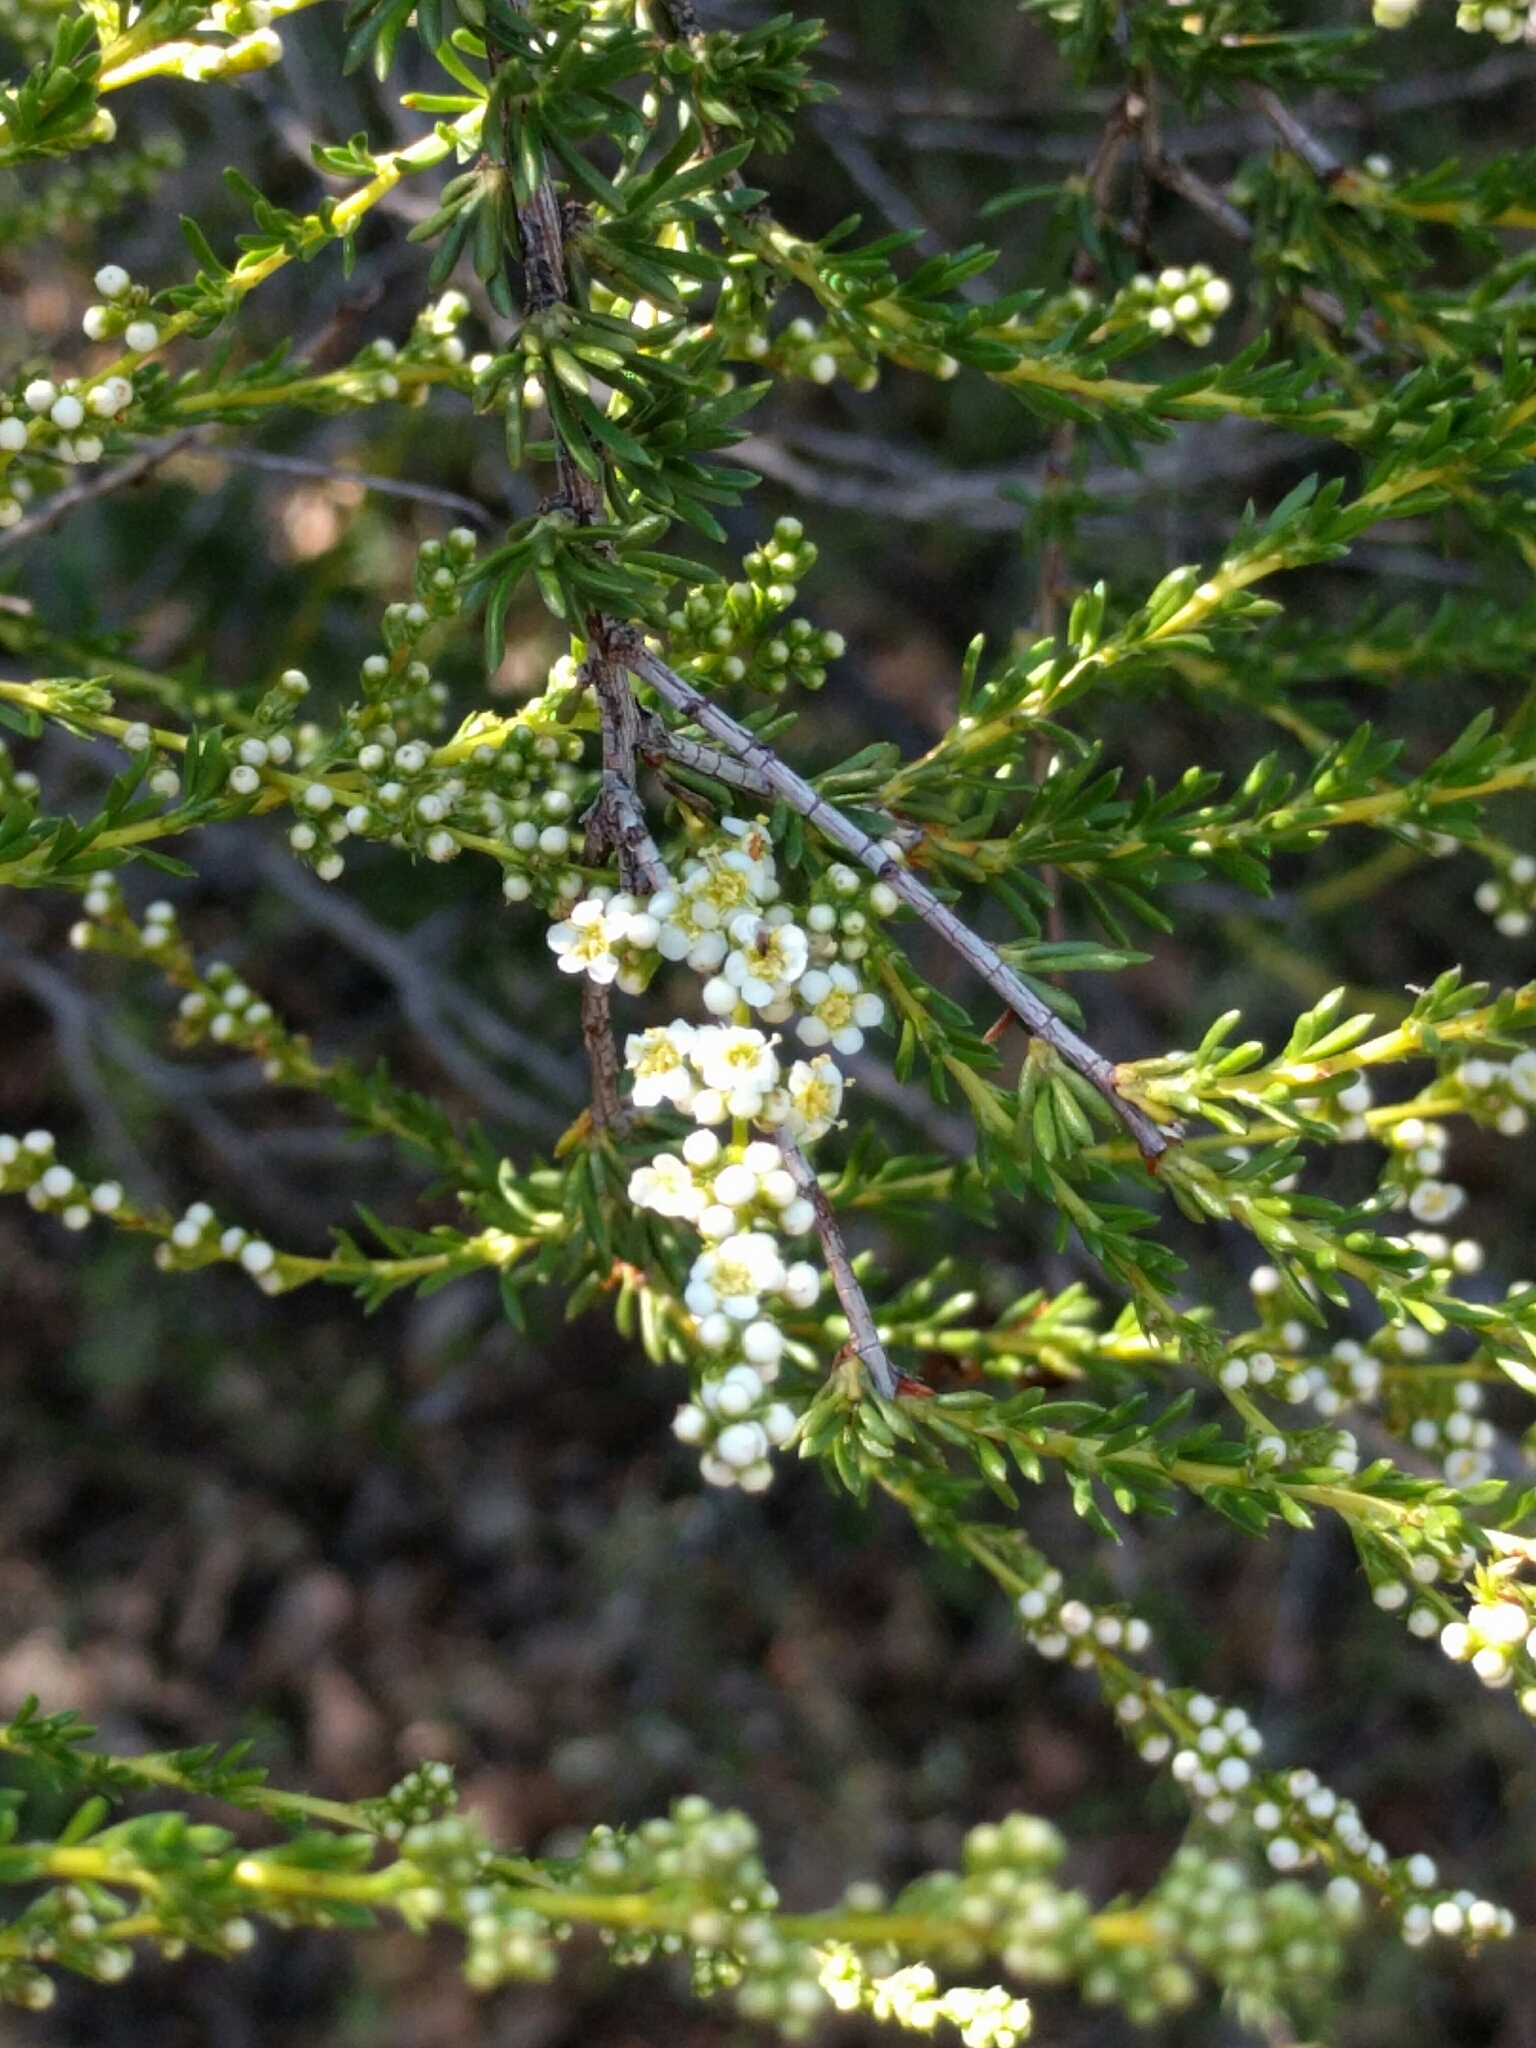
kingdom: Plantae
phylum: Tracheophyta
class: Magnoliopsida
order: Rosales
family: Rosaceae
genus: Adenostoma
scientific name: Adenostoma fasciculatum
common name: Chamise
